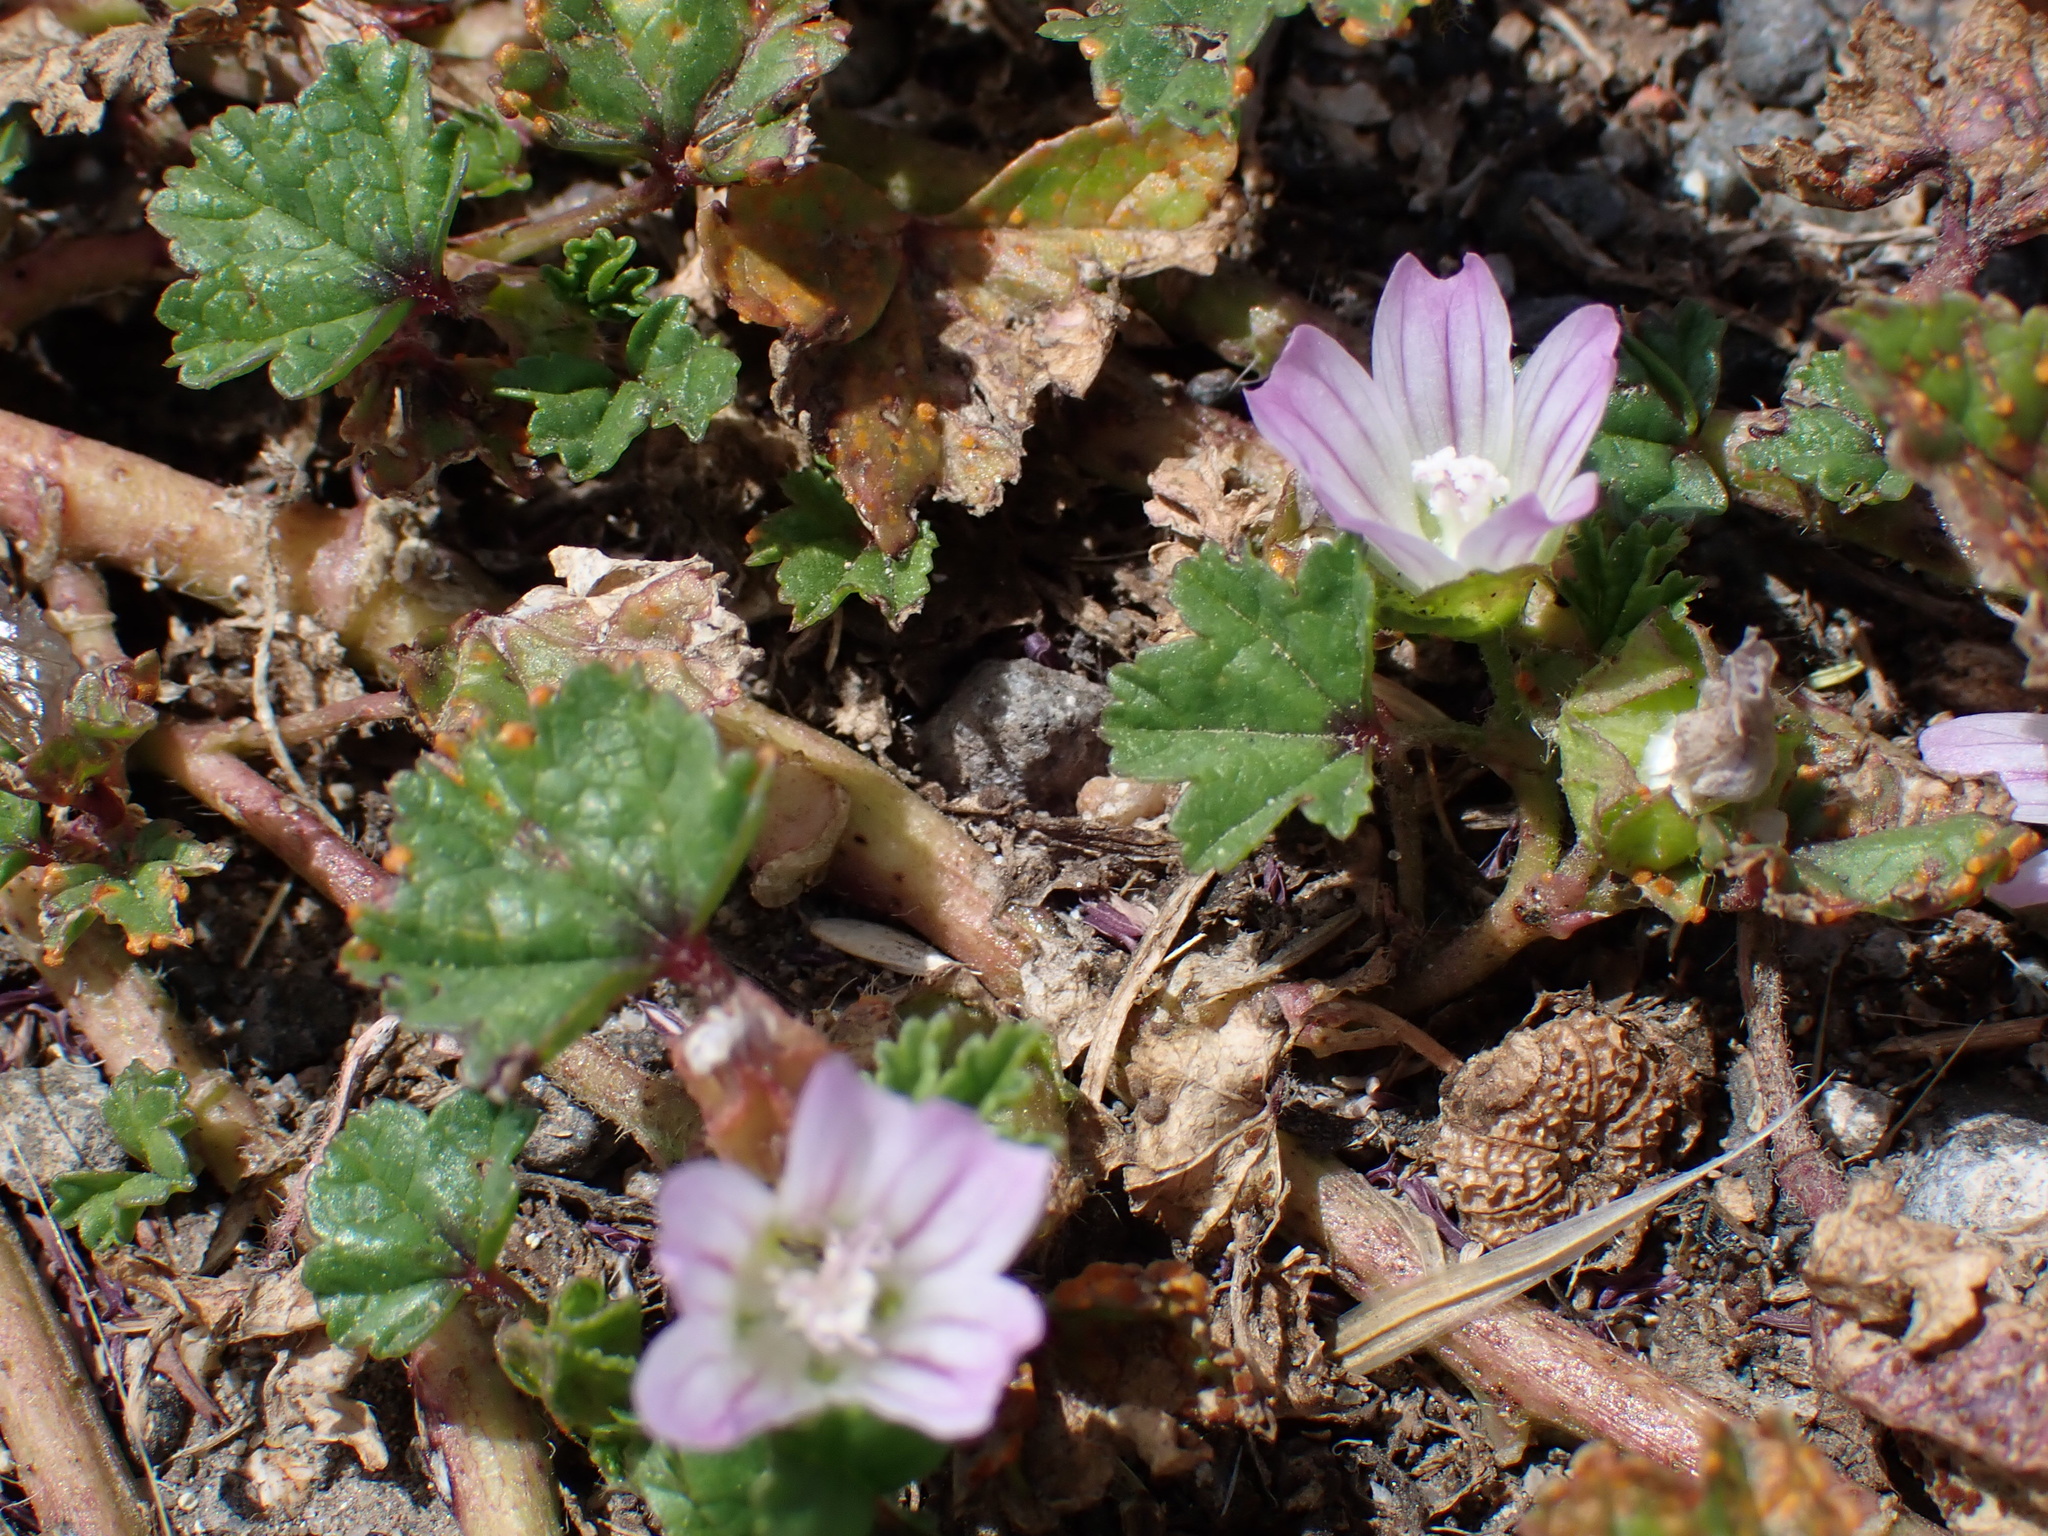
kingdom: Plantae
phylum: Tracheophyta
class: Magnoliopsida
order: Malvales
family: Malvaceae
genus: Malva
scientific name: Malva nicaeensis
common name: French mallow
